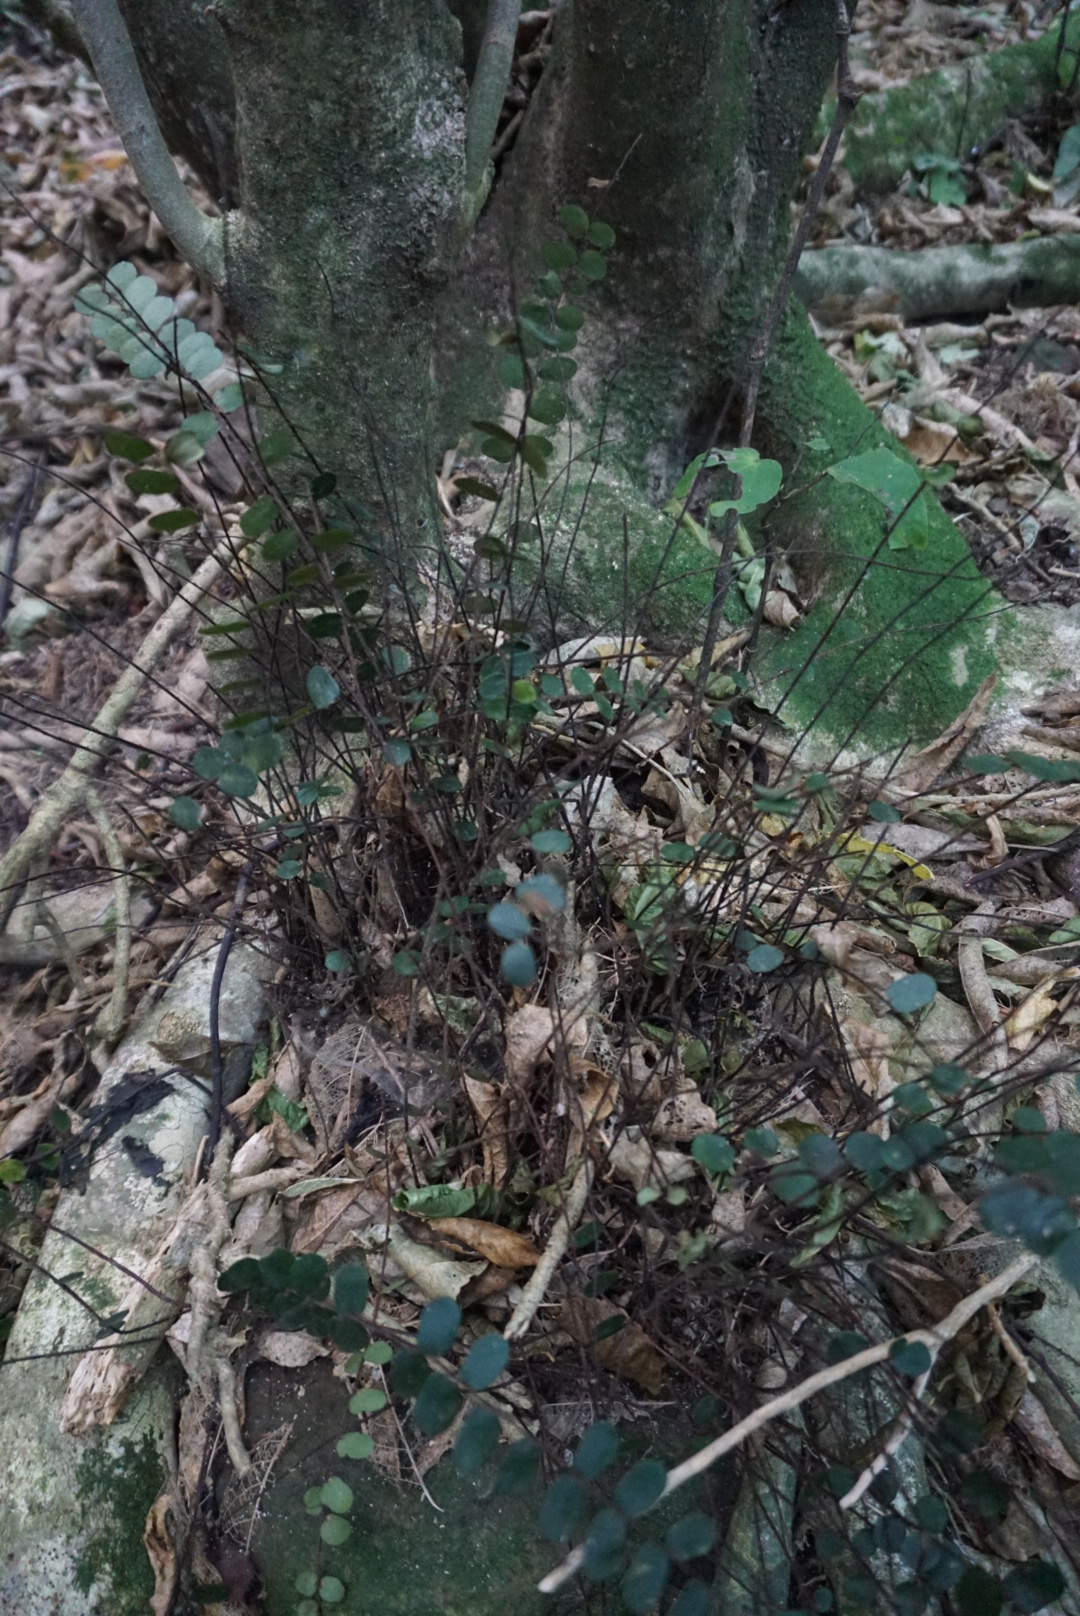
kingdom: Plantae
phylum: Tracheophyta
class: Polypodiopsida
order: Polypodiales
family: Pteridaceae
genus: Pellaea
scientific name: Pellaea rotundifolia
